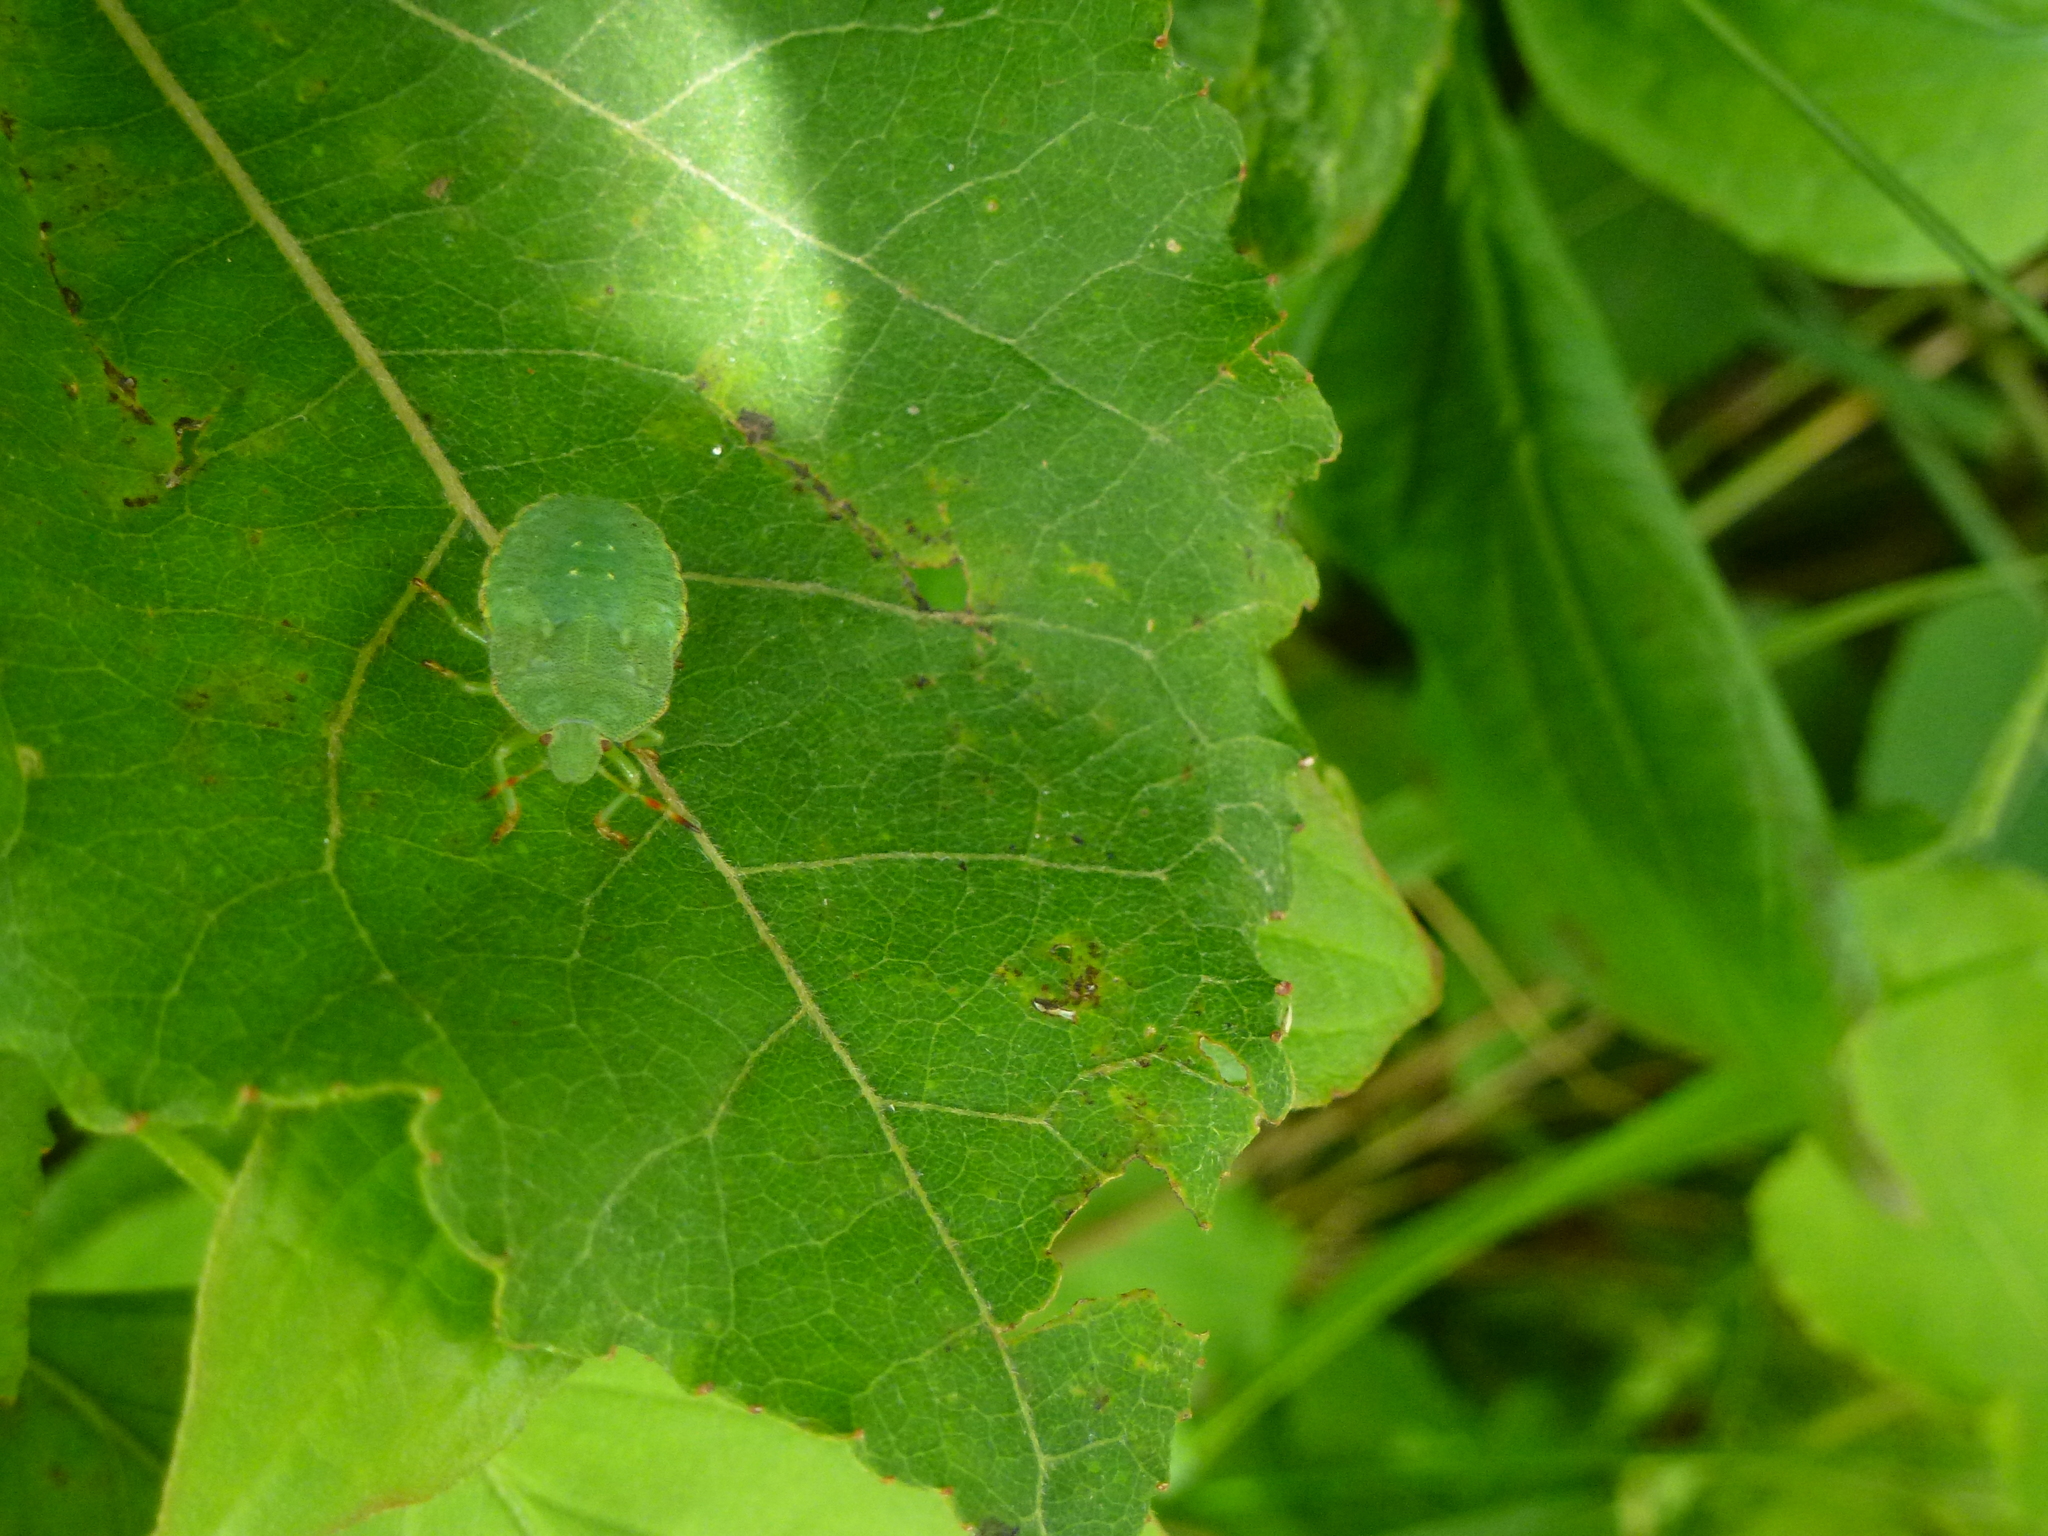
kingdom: Animalia
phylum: Arthropoda
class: Insecta
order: Hemiptera
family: Pentatomidae
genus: Palomena
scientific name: Palomena prasina
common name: Green shieldbug
